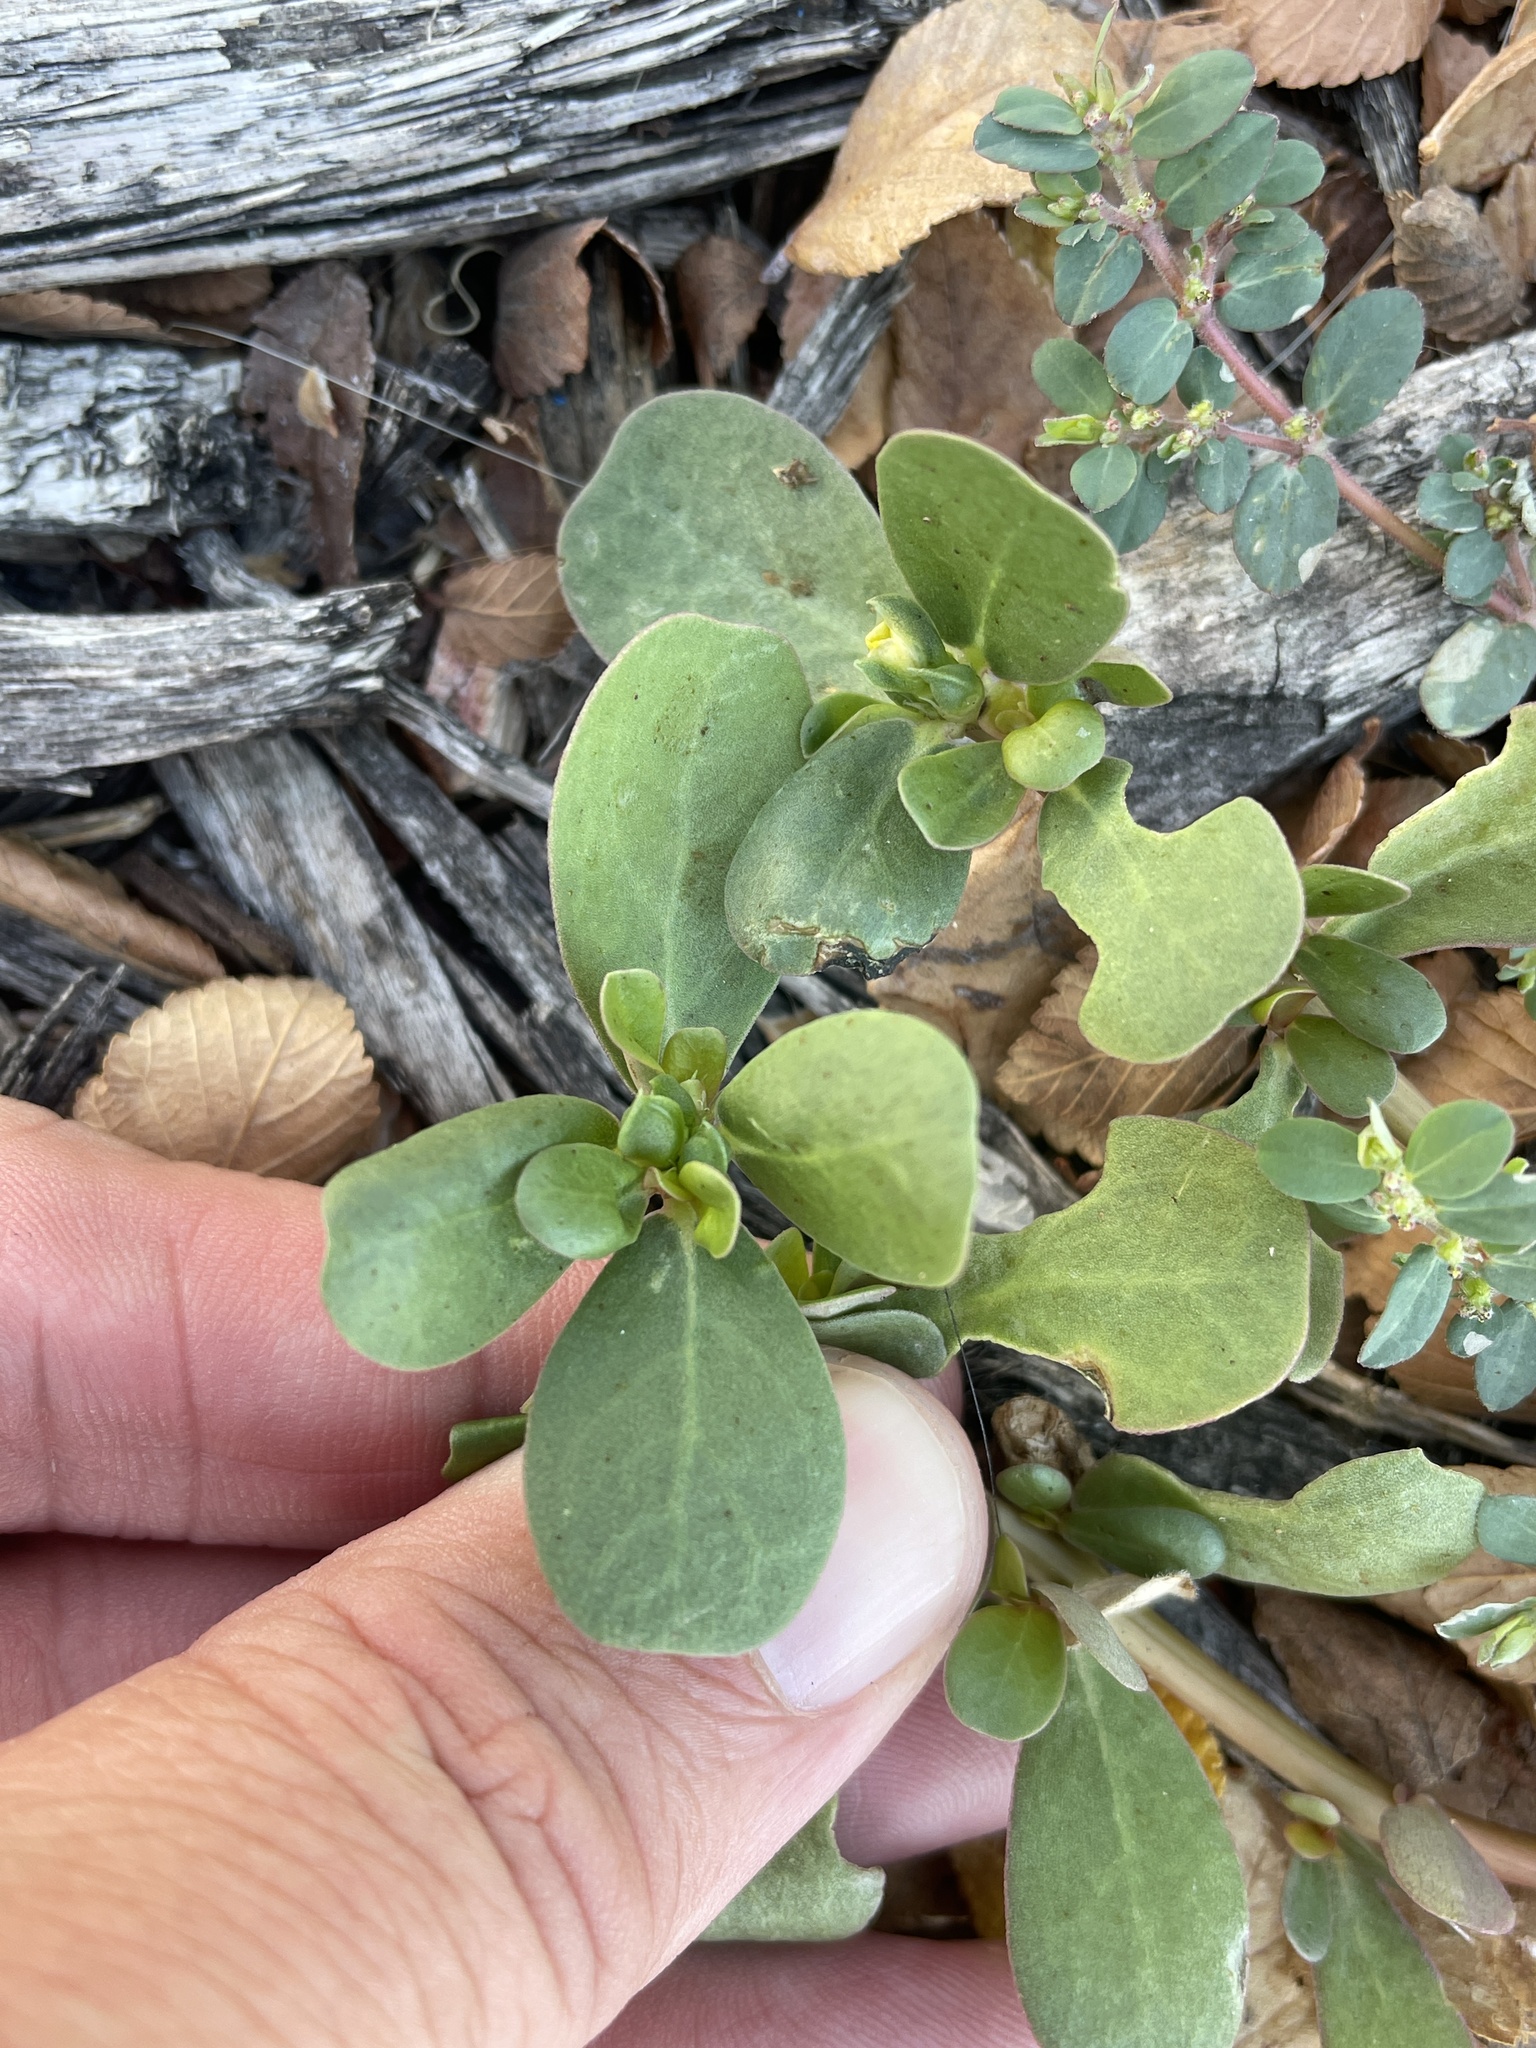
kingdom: Plantae
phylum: Tracheophyta
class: Magnoliopsida
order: Caryophyllales
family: Portulacaceae
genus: Portulaca
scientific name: Portulaca oleracea
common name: Common purslane
